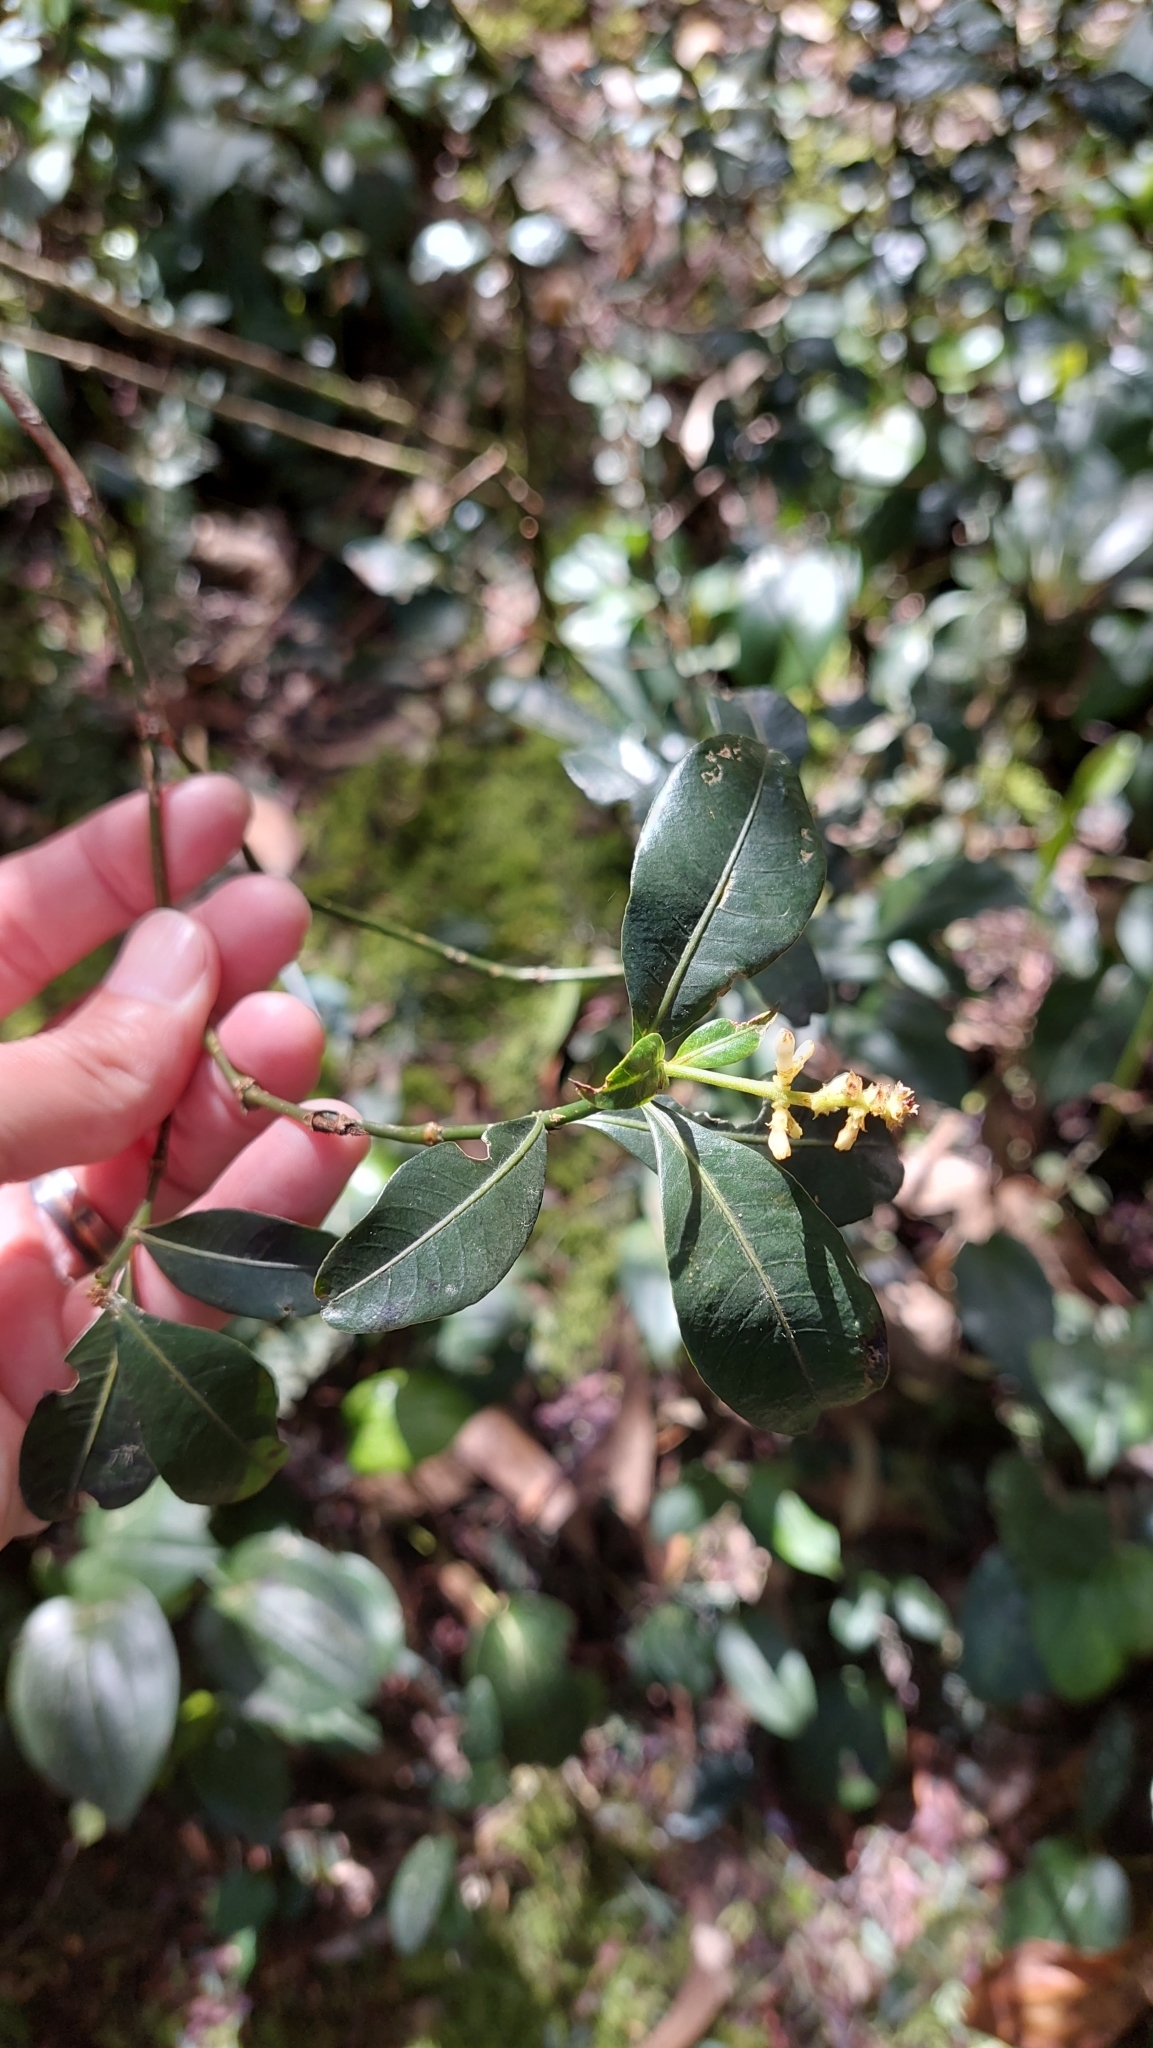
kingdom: Plantae
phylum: Tracheophyta
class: Magnoliopsida
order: Gentianales
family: Rubiaceae
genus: Palicourea
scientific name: Palicourea boqueronensis
